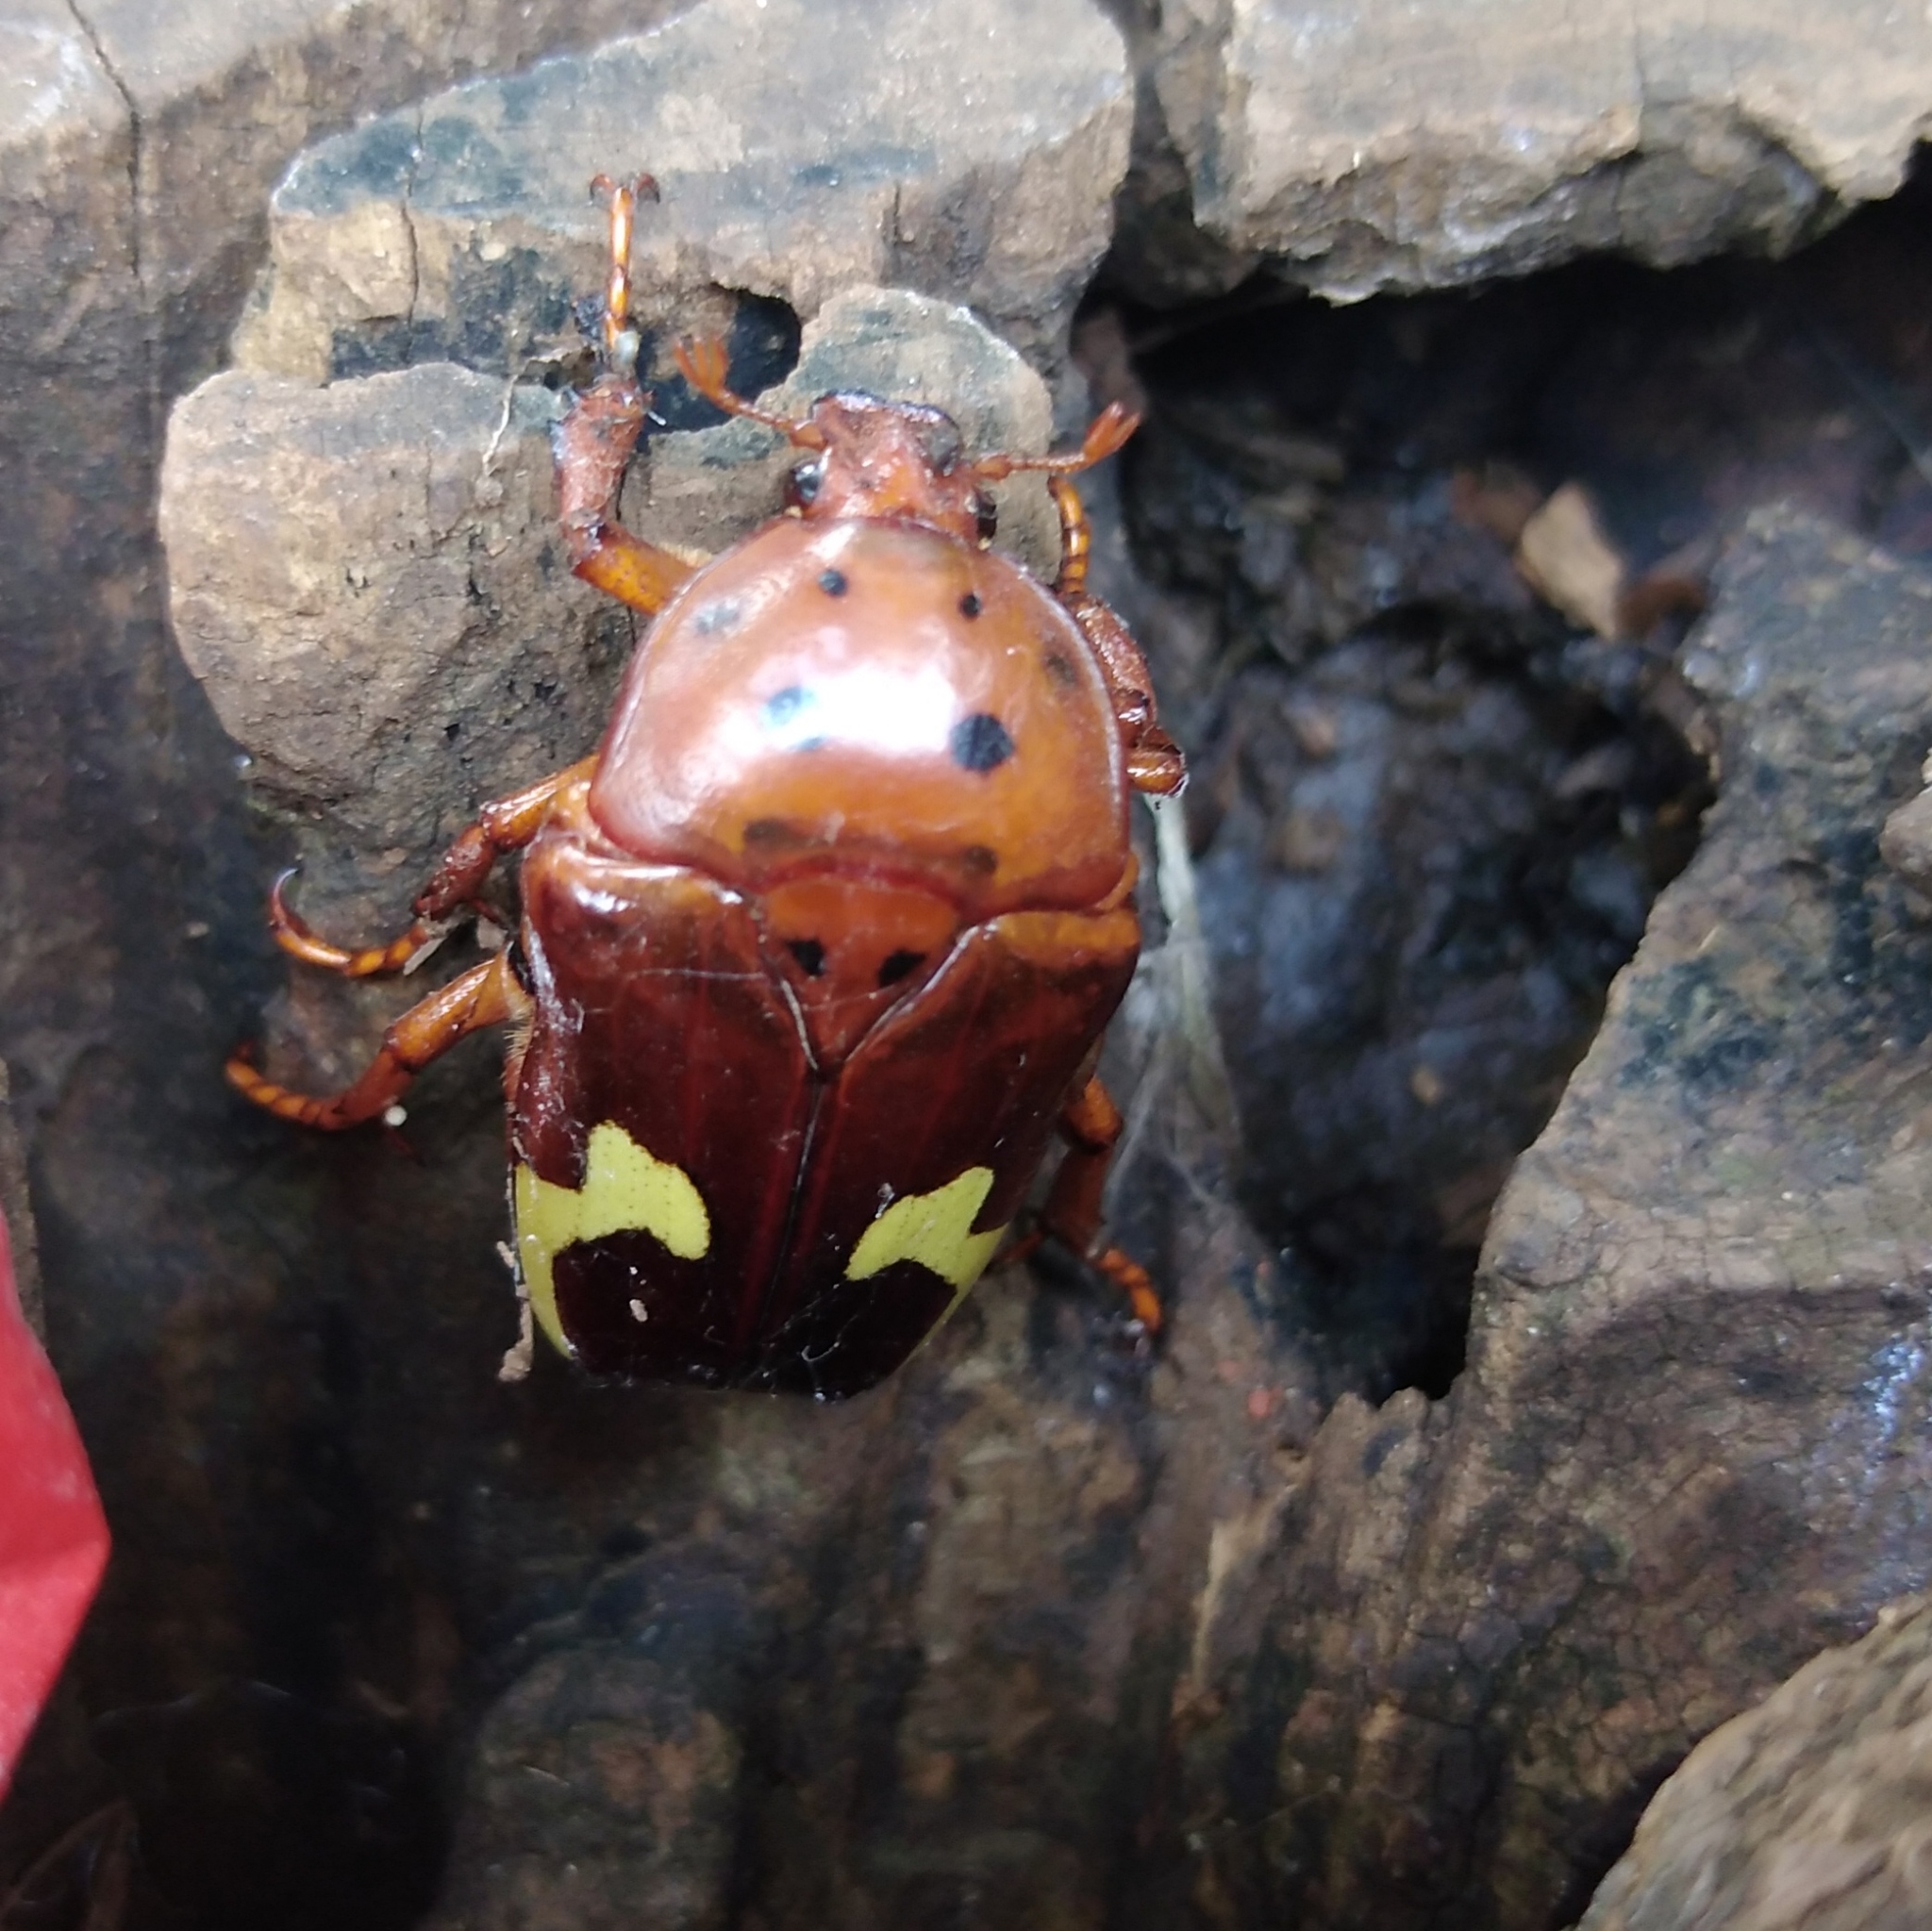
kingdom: Animalia
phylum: Arthropoda
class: Insecta
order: Coleoptera
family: Scarabaeidae
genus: Anisorrhina
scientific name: Anisorrhina flavomaculata
